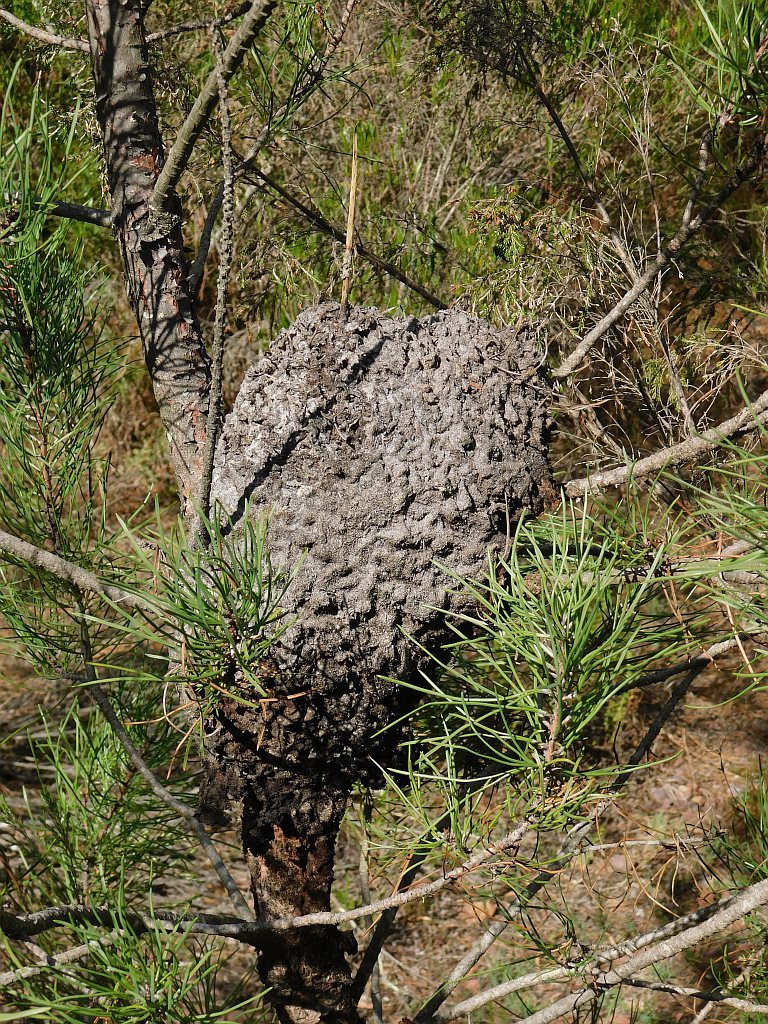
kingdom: Animalia
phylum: Arthropoda
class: Insecta
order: Hymenoptera
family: Formicidae
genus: Crematogaster
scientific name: Crematogaster peringueyi
